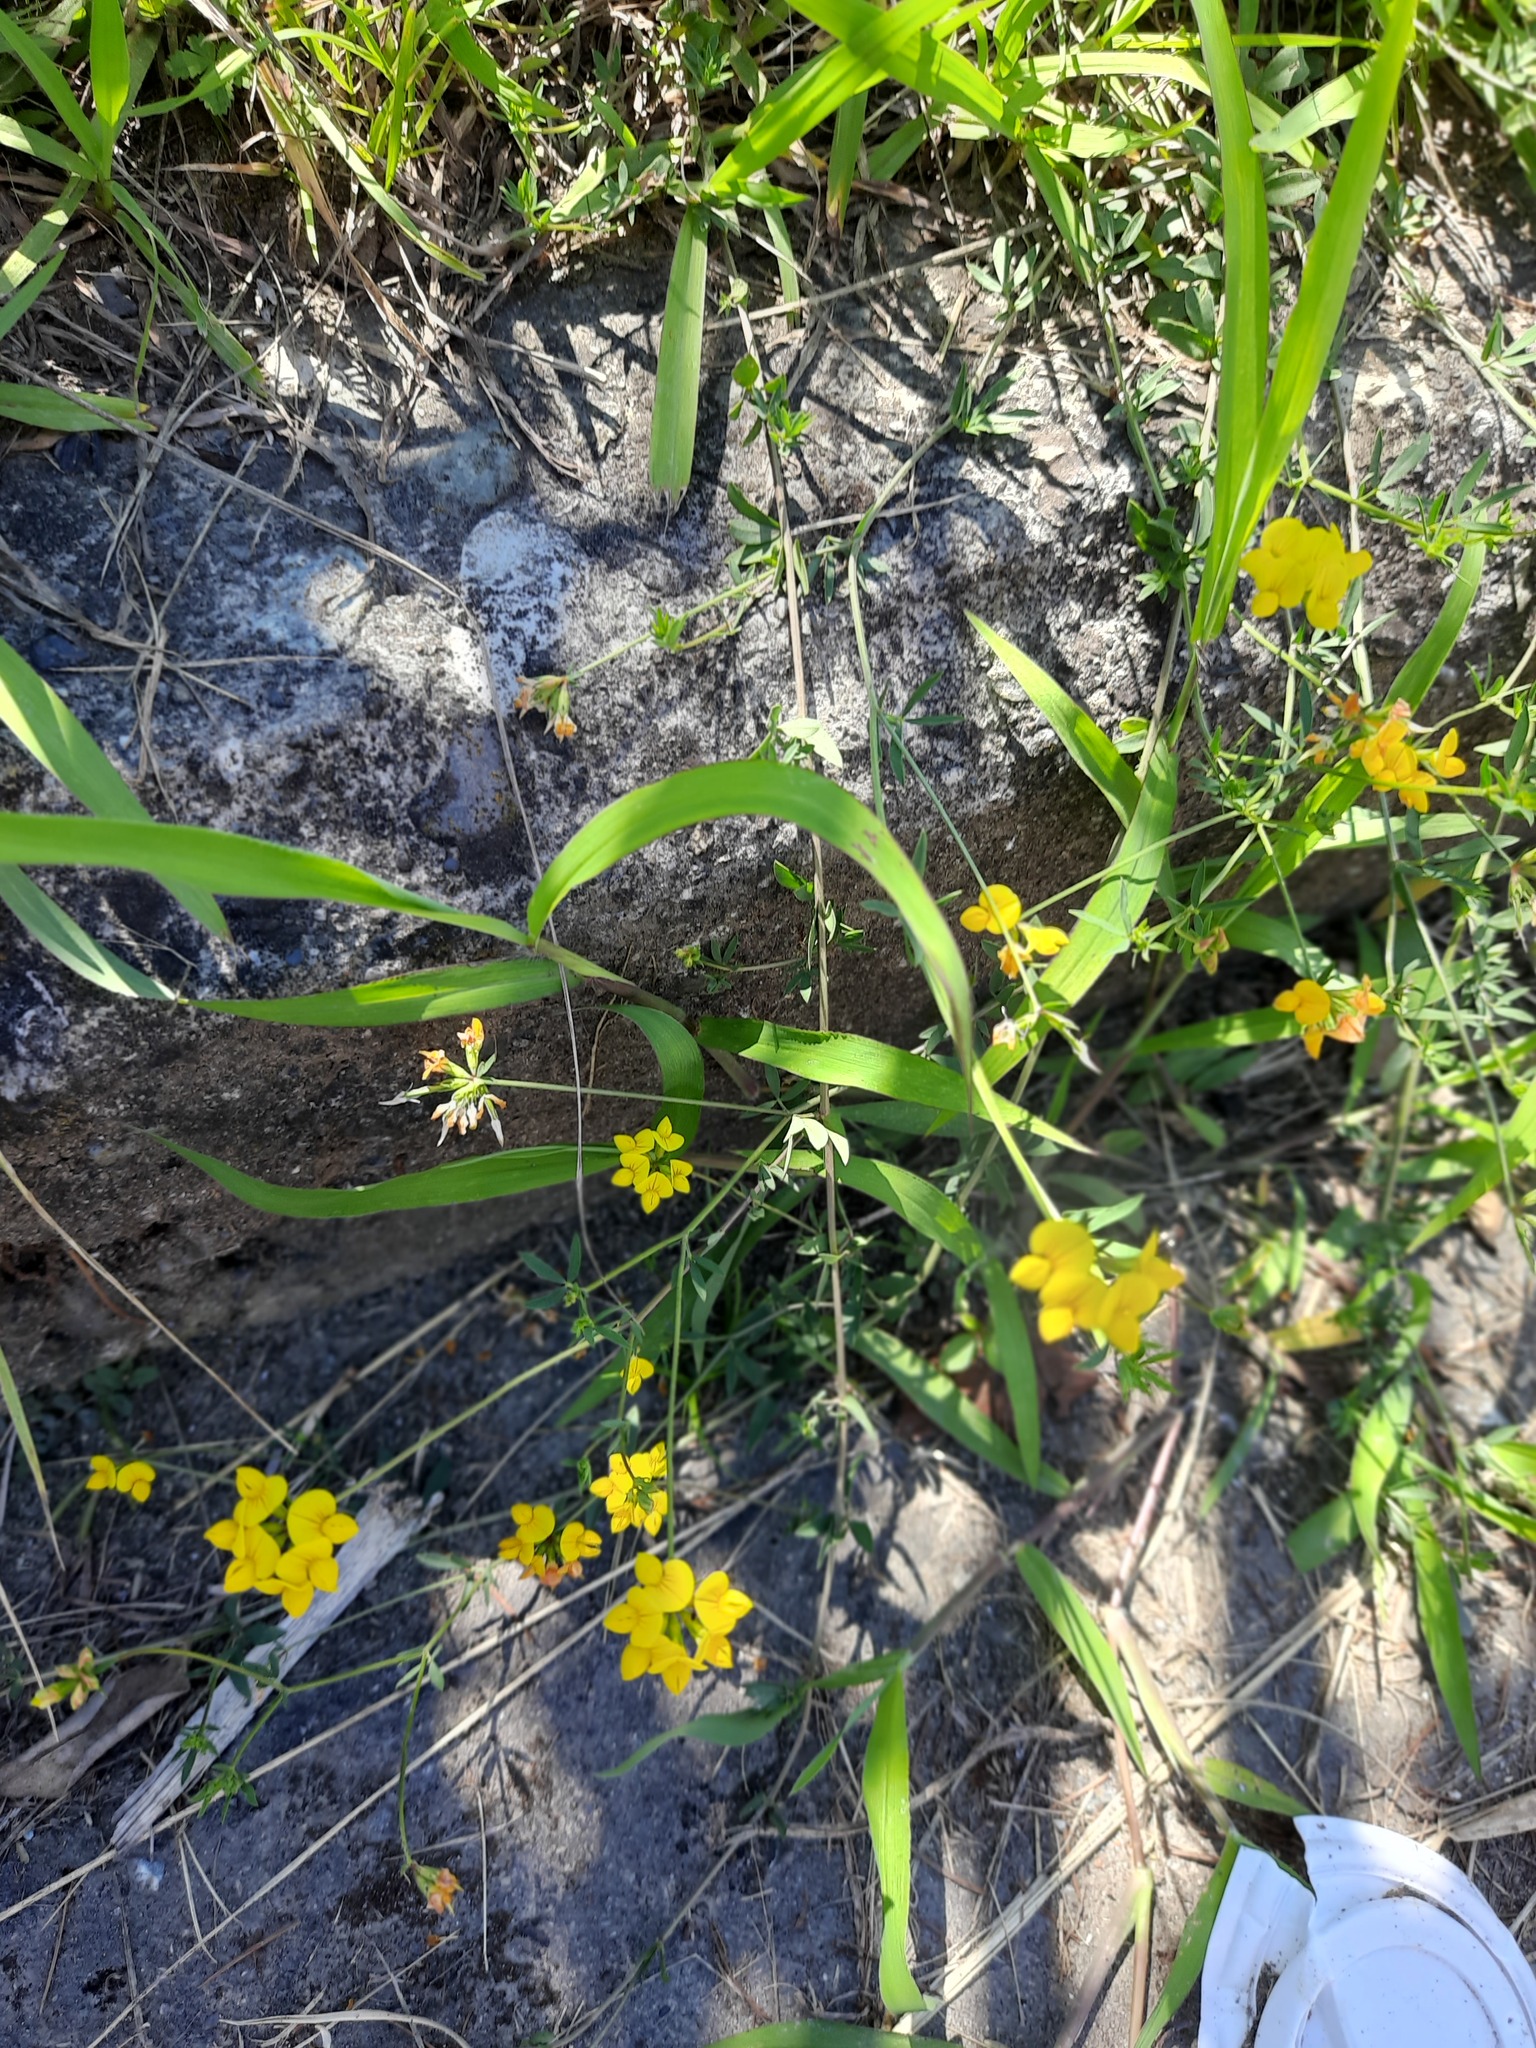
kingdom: Plantae
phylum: Tracheophyta
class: Magnoliopsida
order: Fabales
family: Fabaceae
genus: Lotus
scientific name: Lotus corniculatus
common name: Common bird's-foot-trefoil
